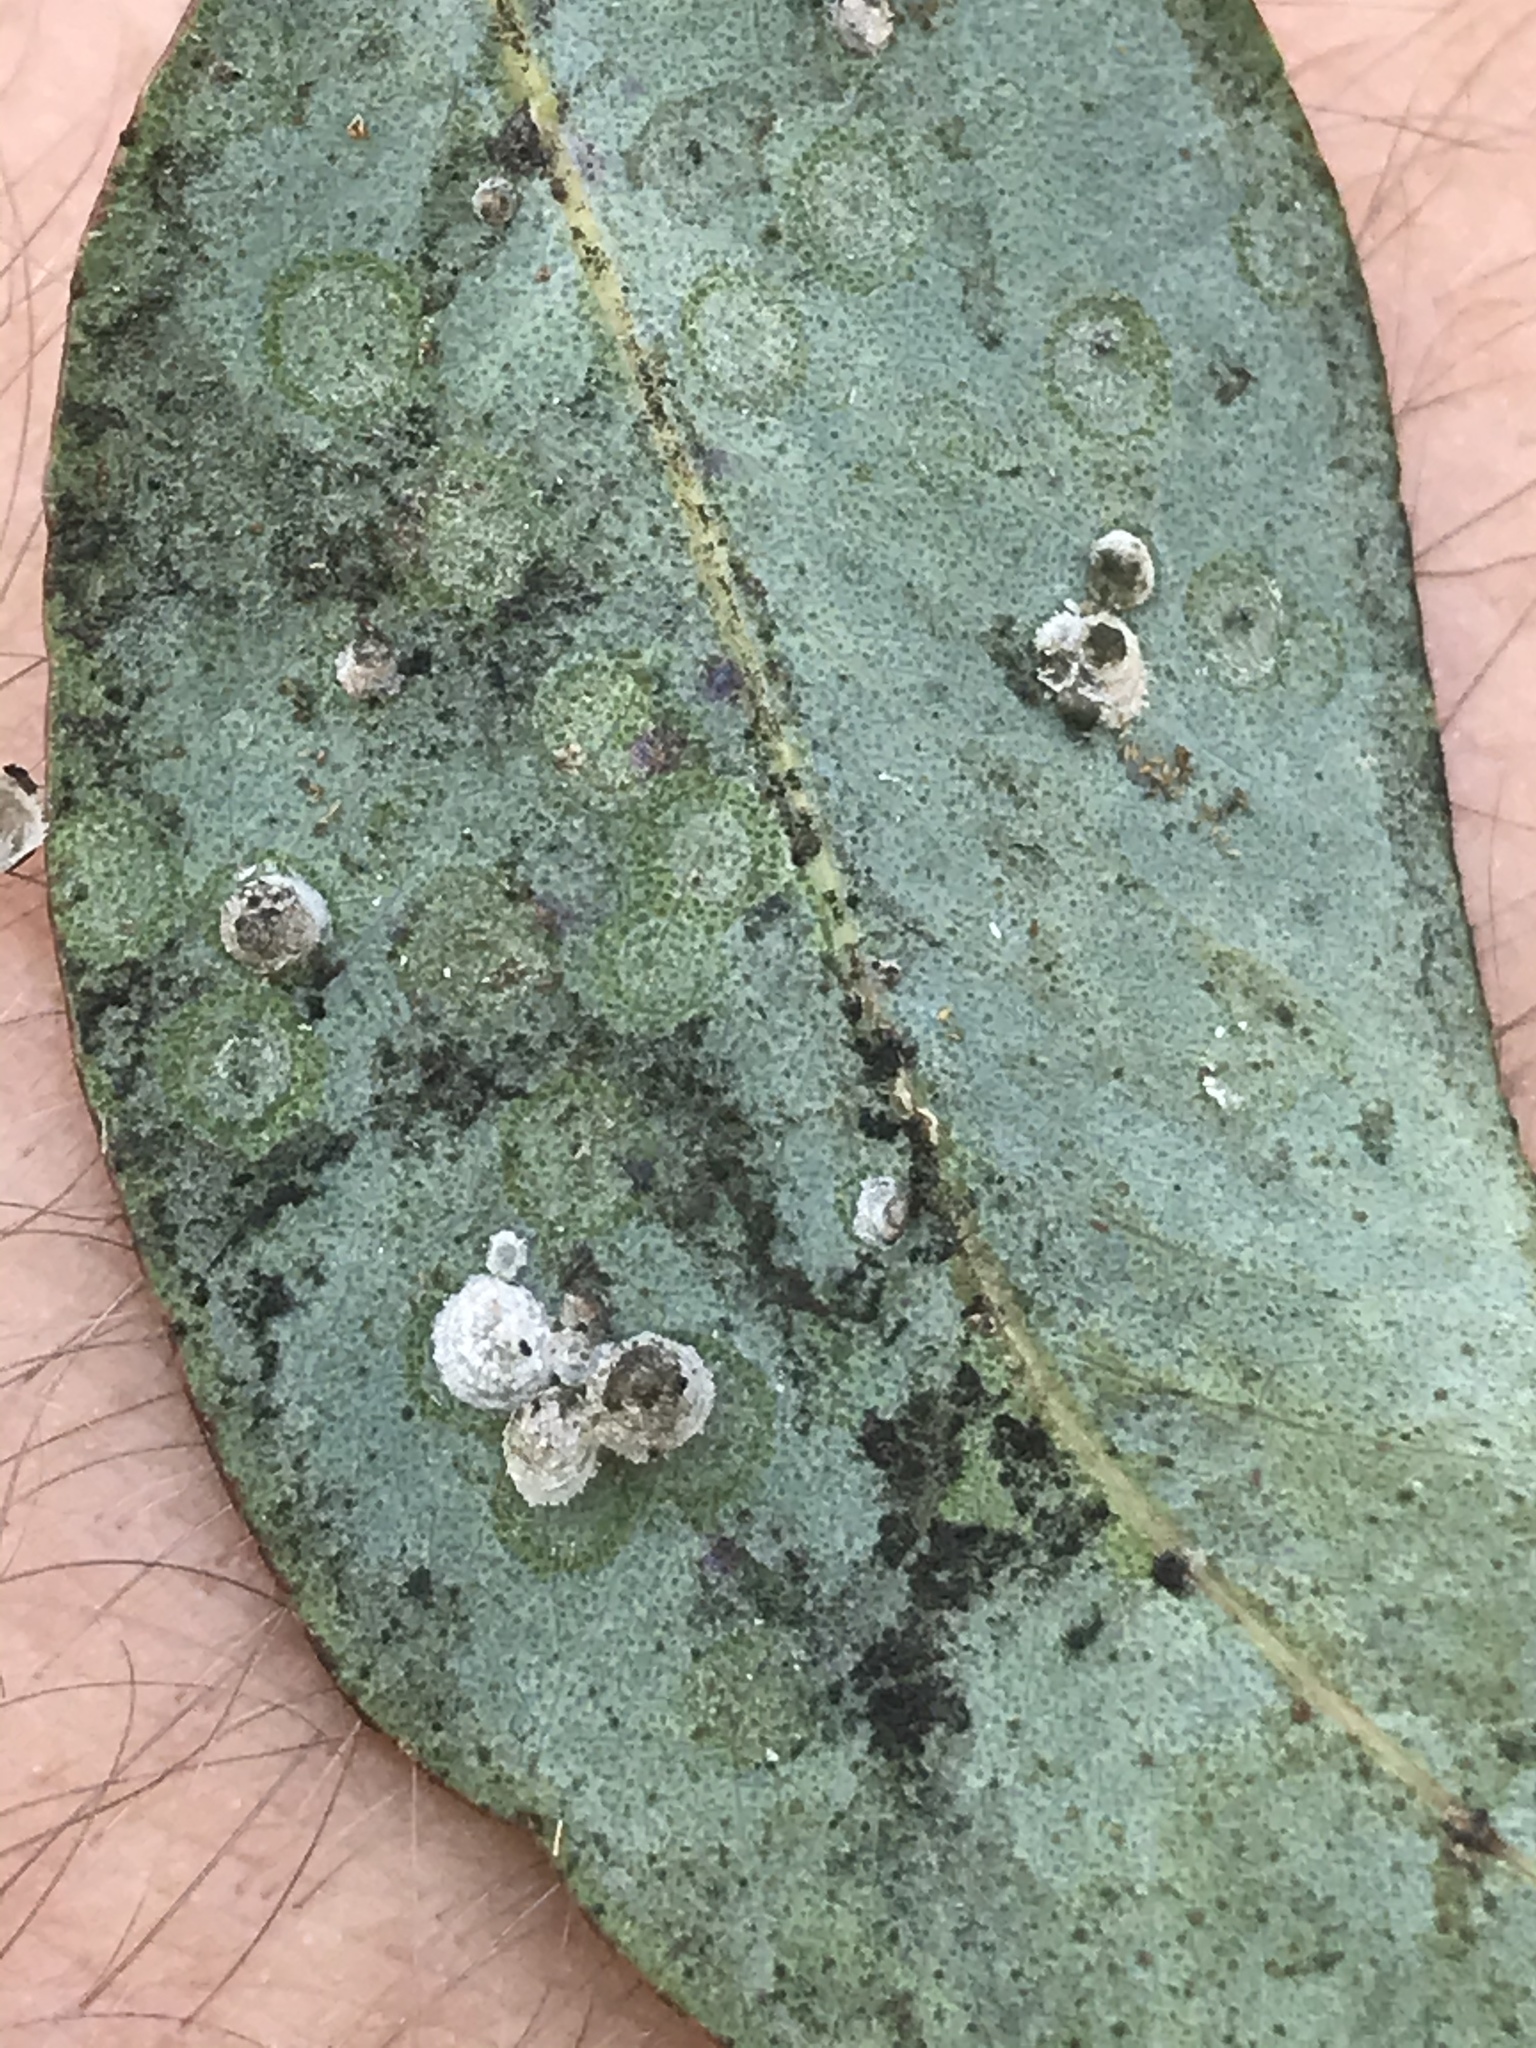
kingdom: Animalia
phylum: Arthropoda
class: Insecta
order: Hemiptera
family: Aphalaridae
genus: Glycaspis
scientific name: Glycaspis brimblecombei
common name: Red gum lerp psyllid
